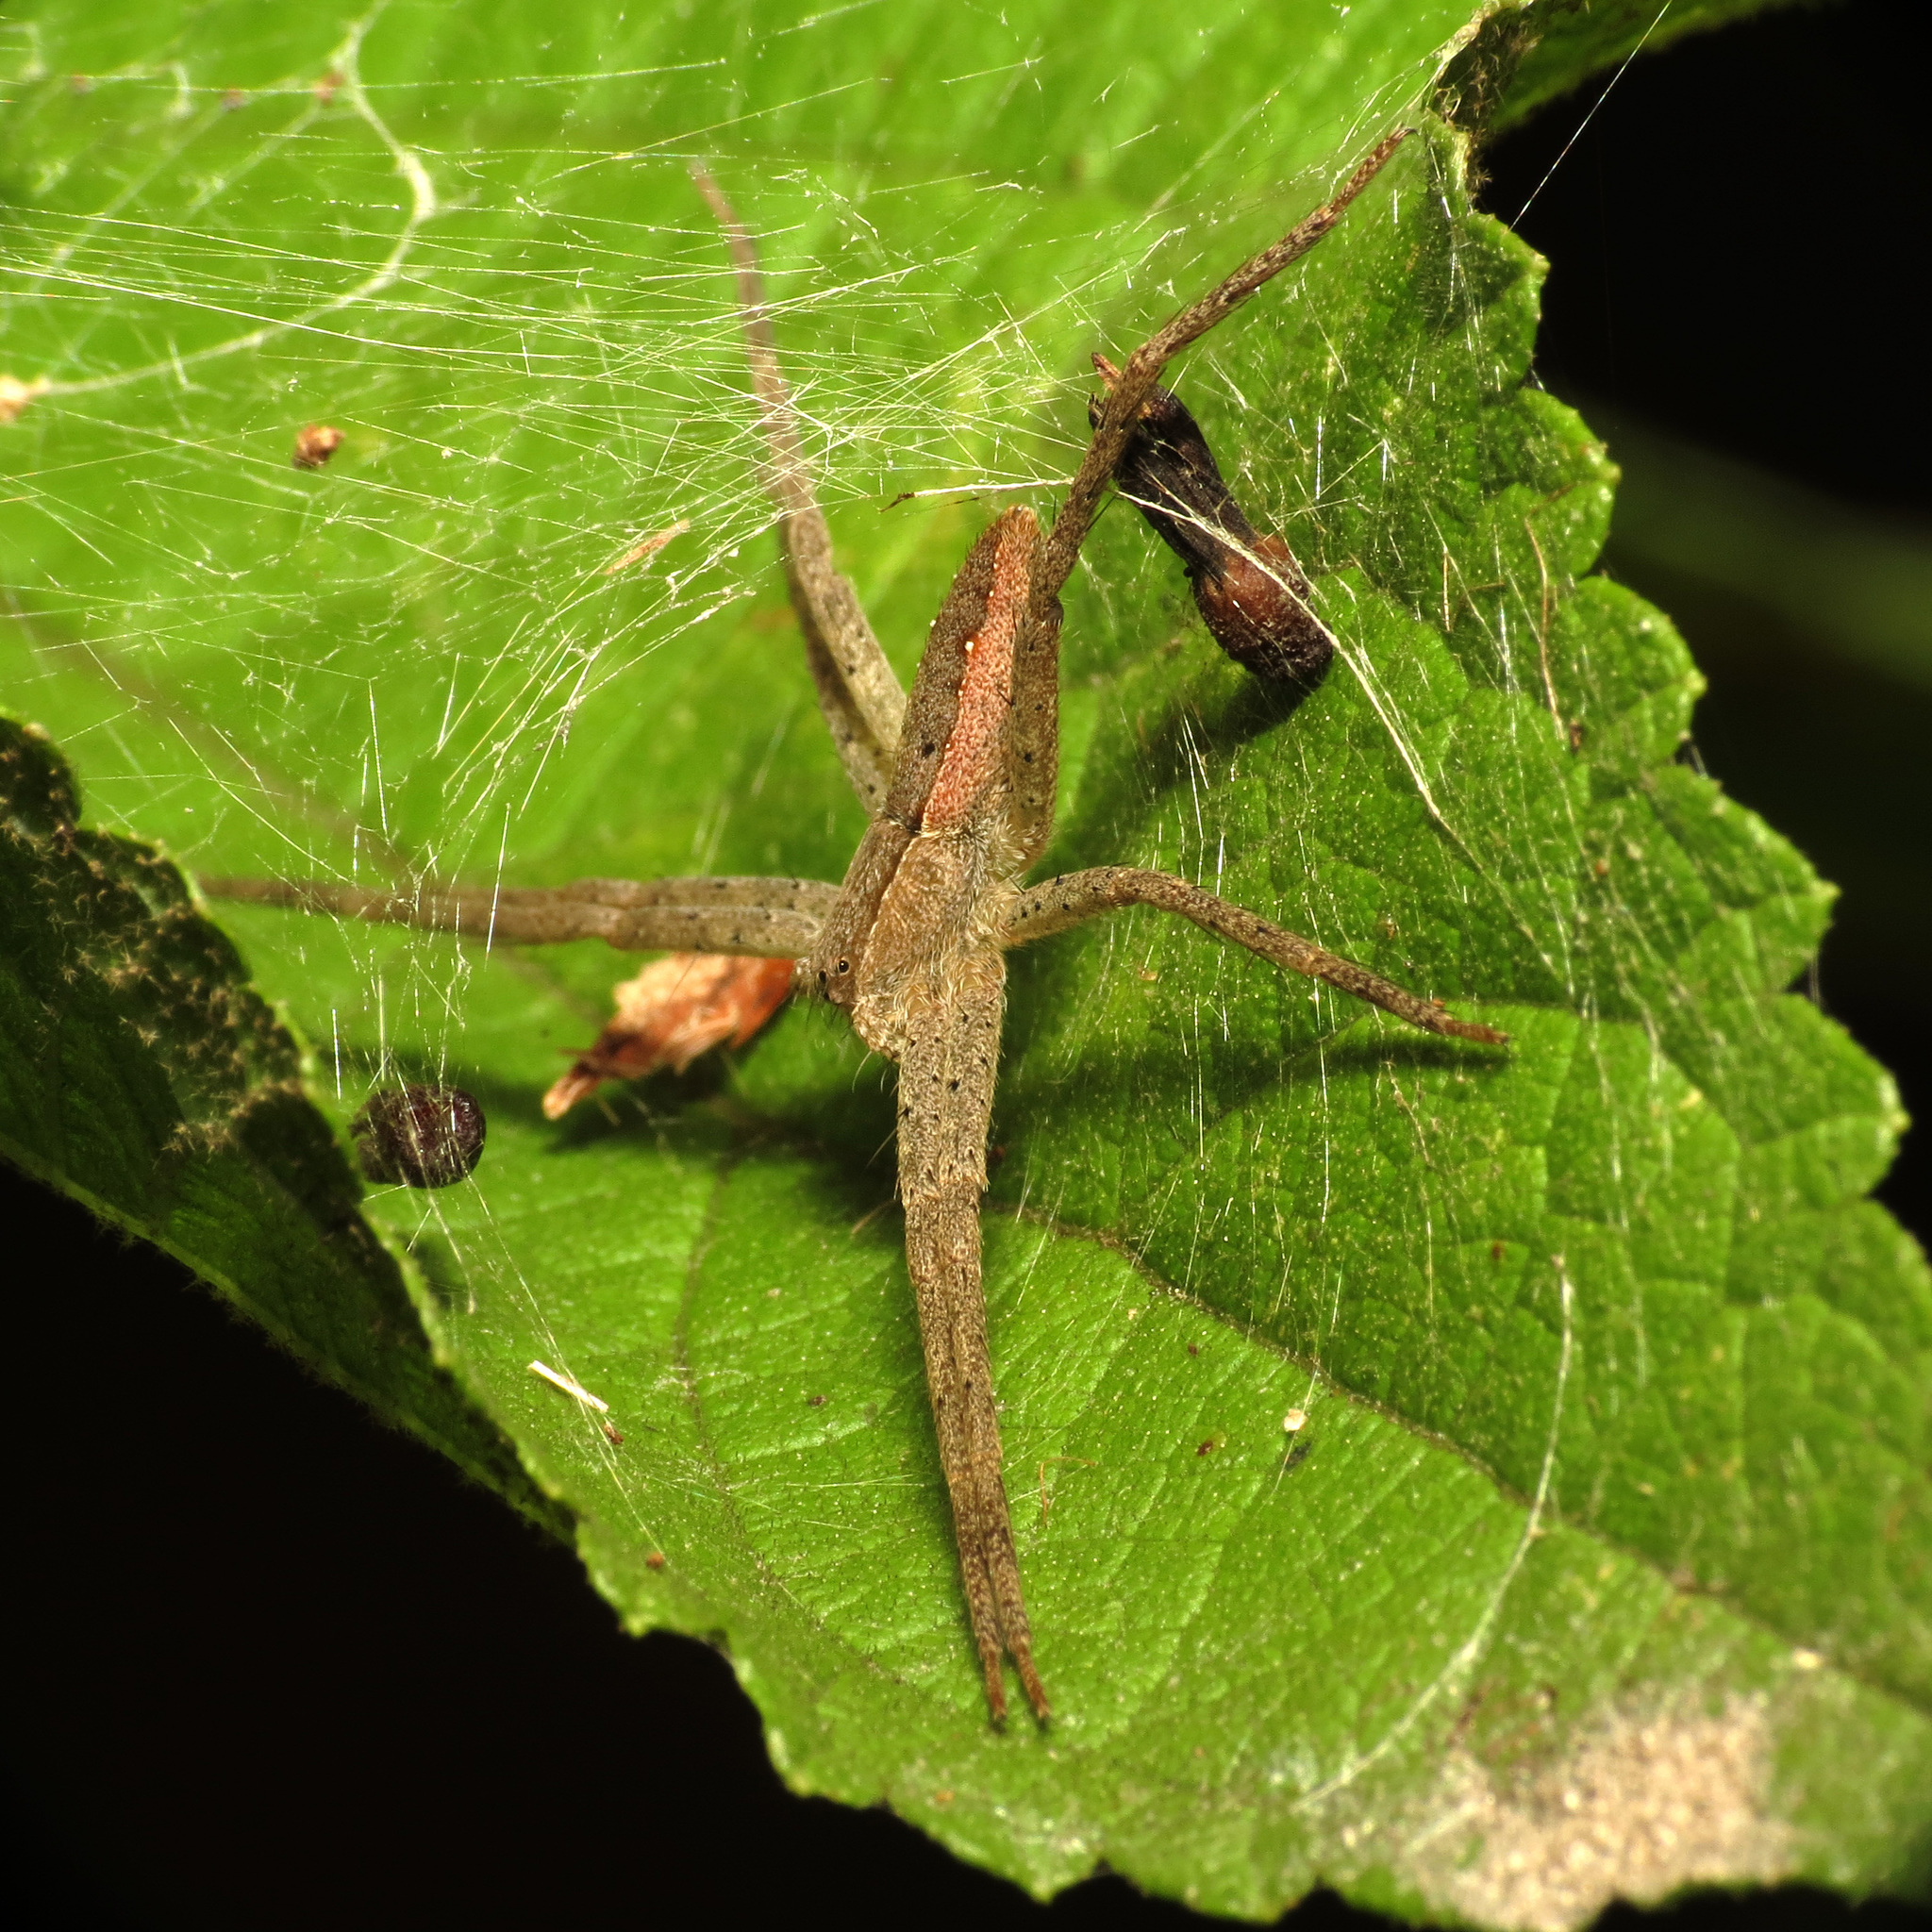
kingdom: Animalia
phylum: Arthropoda
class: Arachnida
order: Araneae
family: Pisauridae
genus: Pisaurina
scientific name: Pisaurina mira
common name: American nursery web spider
